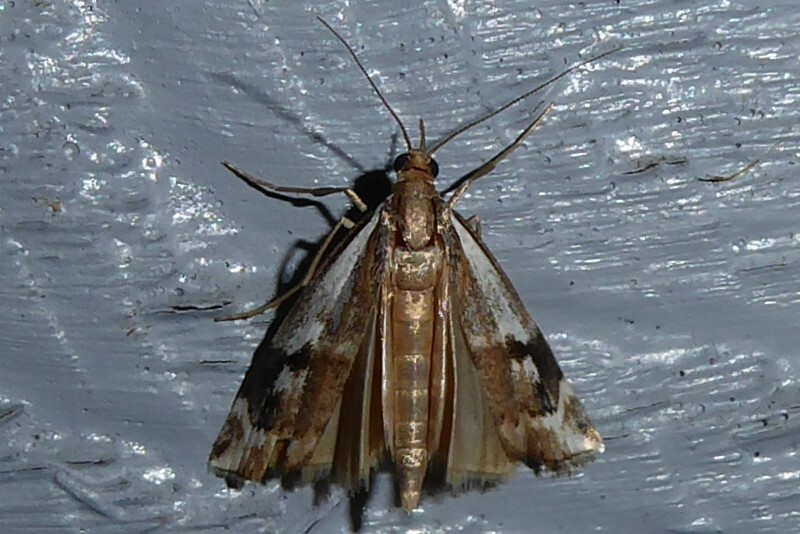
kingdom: Animalia
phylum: Arthropoda
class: Insecta
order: Lepidoptera
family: Crambidae
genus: Orocrambus
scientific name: Orocrambus vulgaris
